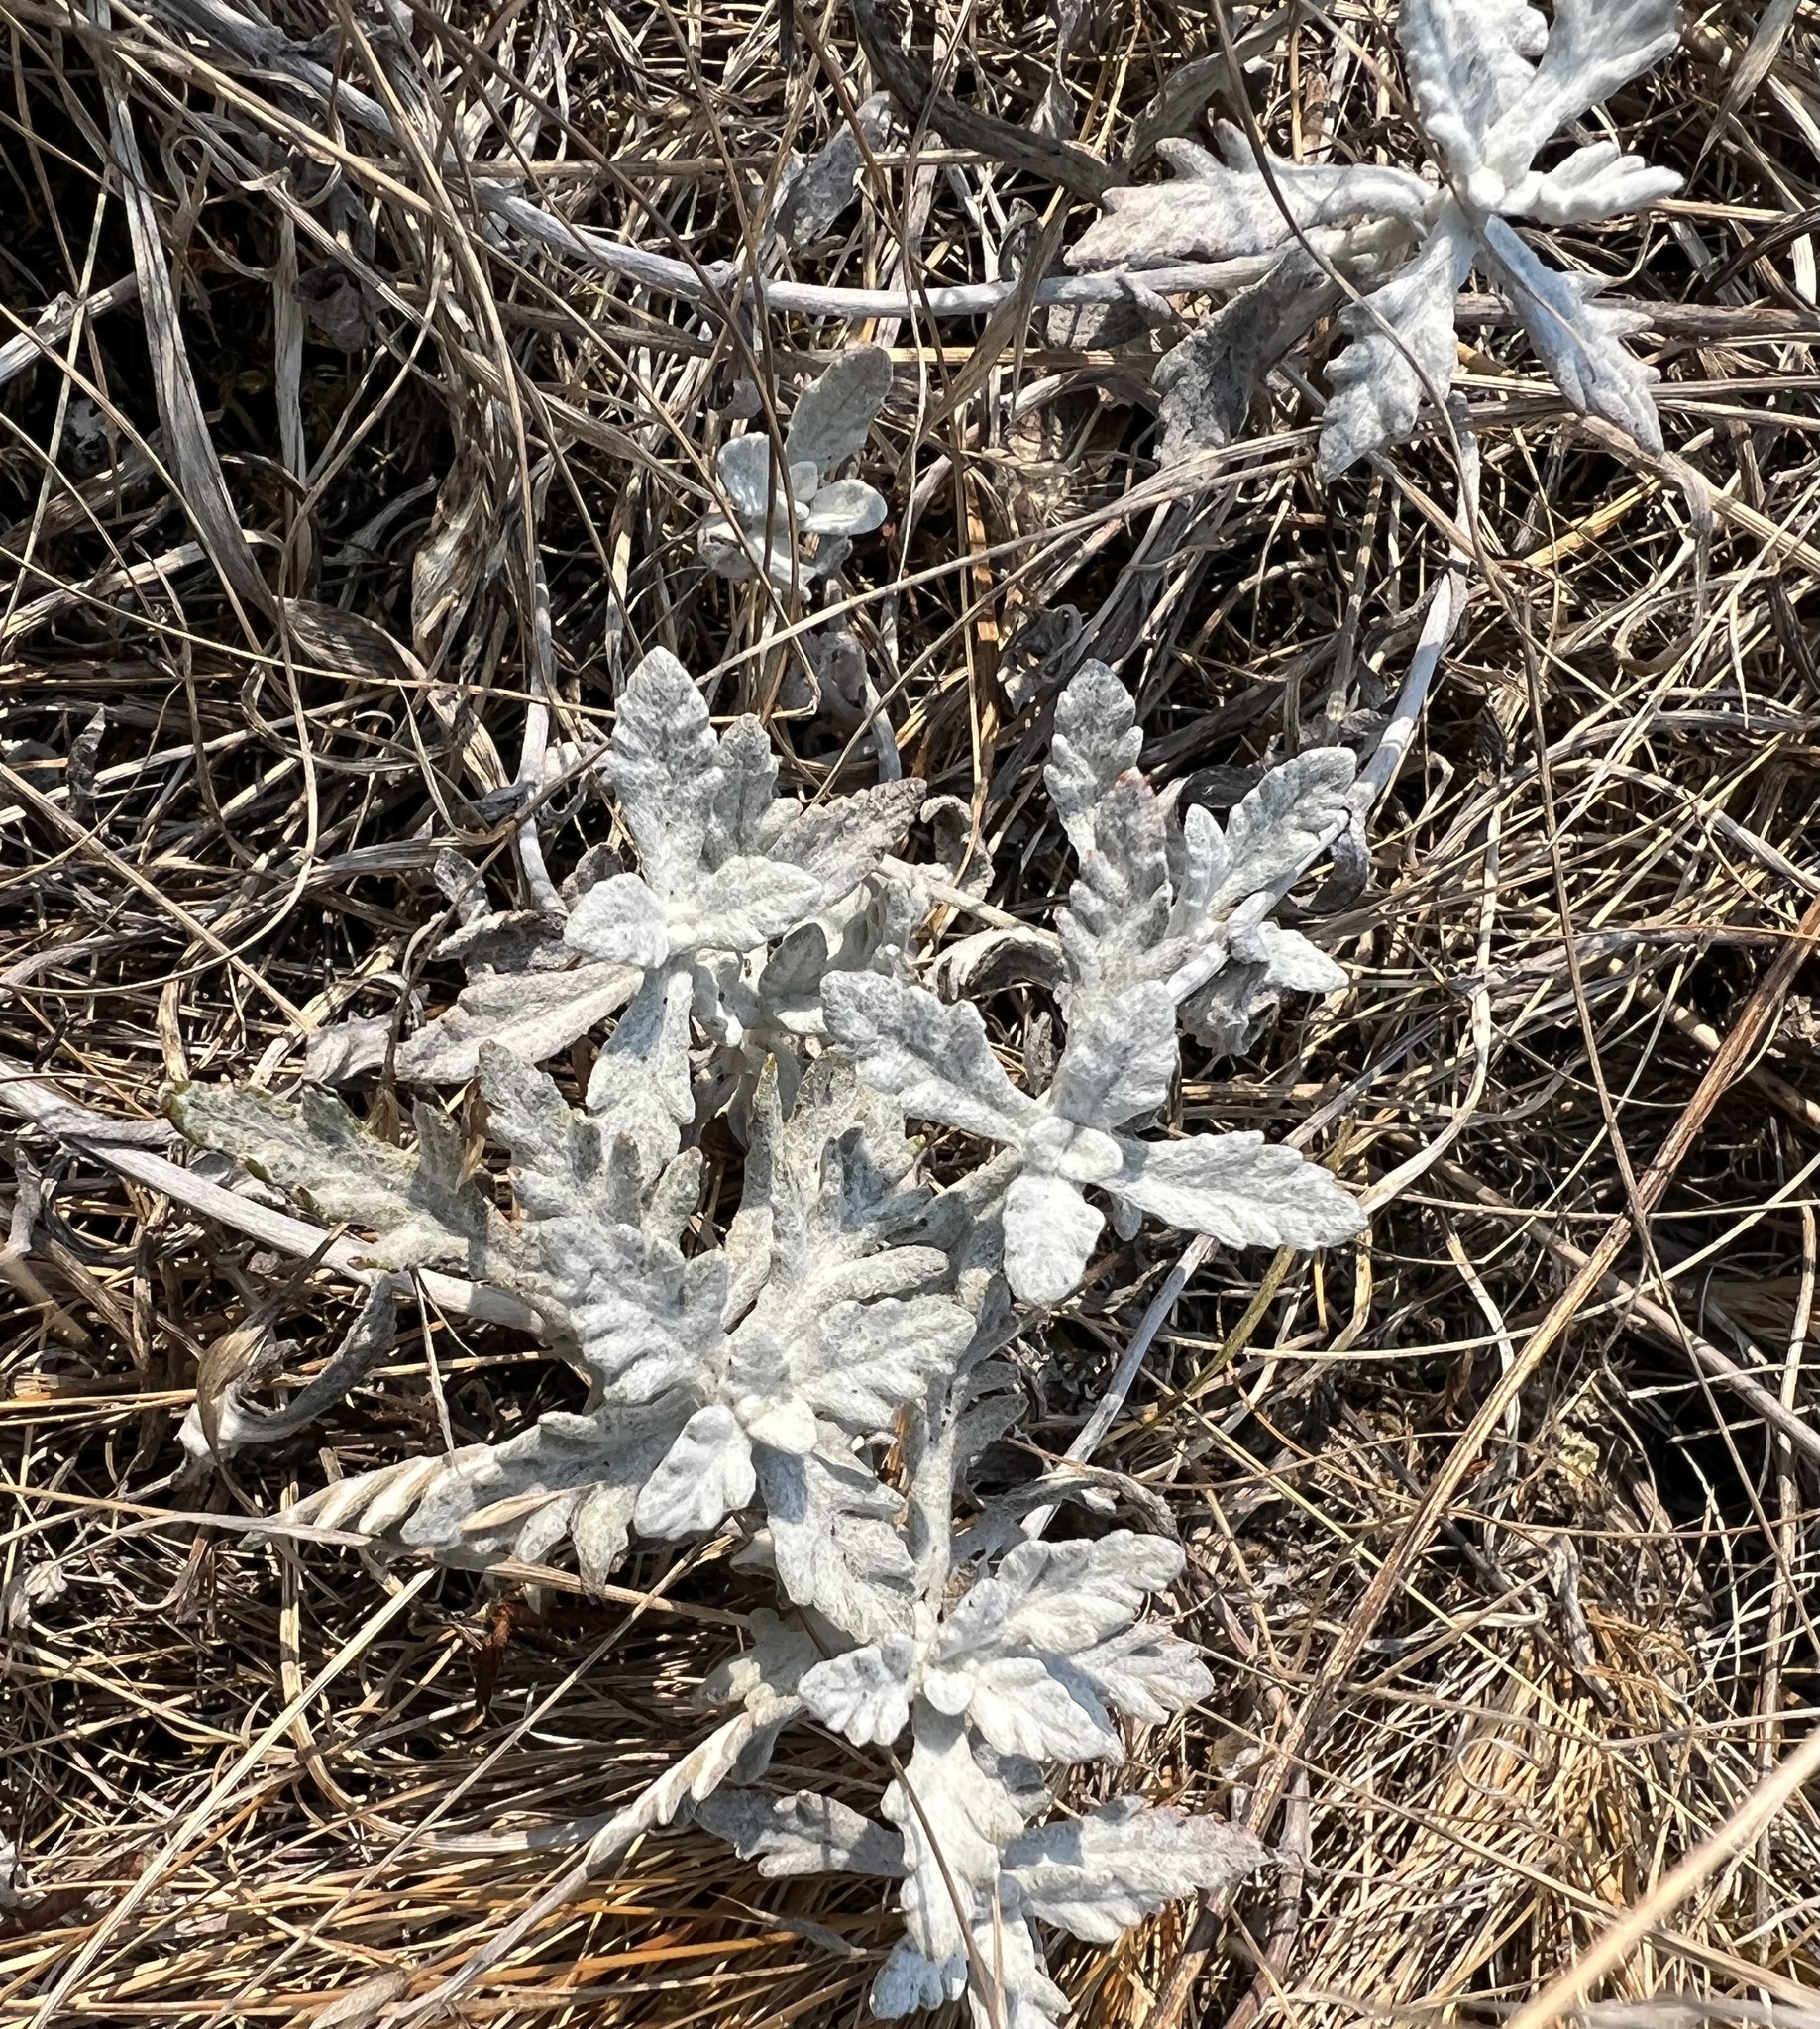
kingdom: Plantae
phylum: Tracheophyta
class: Magnoliopsida
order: Asterales
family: Asteraceae
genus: Eriophyllum
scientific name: Eriophyllum lanatum
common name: Common woolly-sunflower
